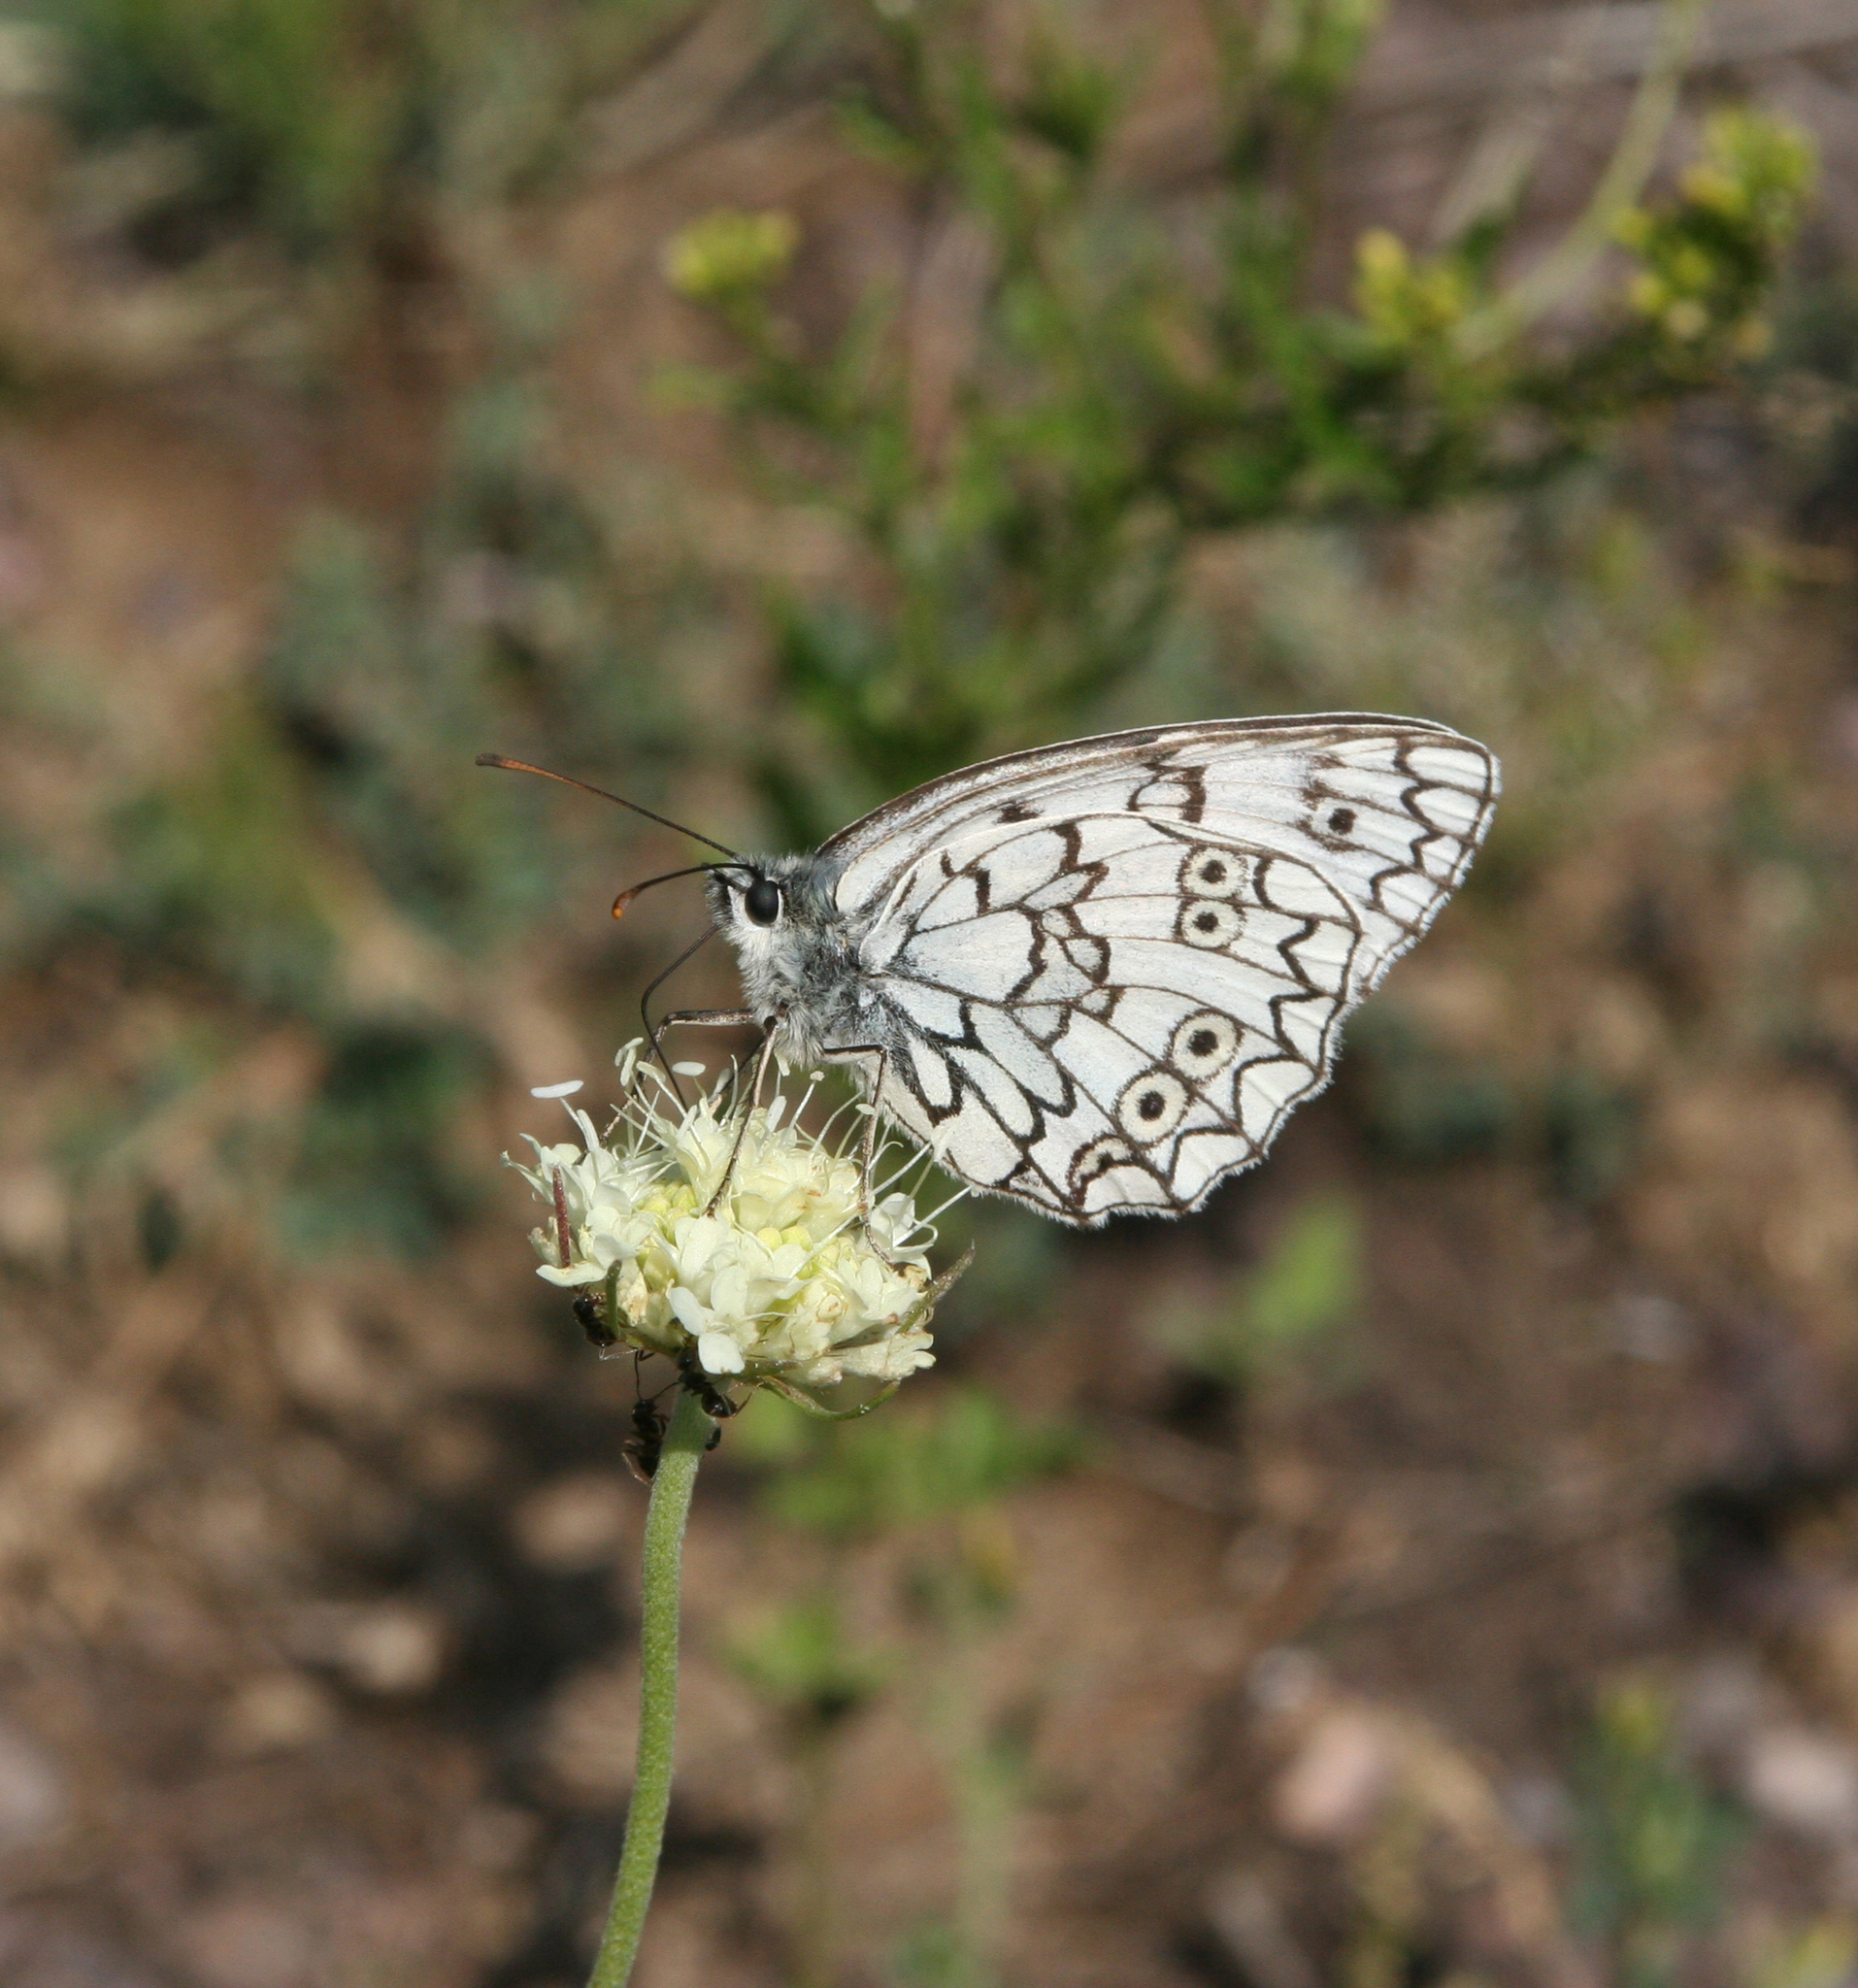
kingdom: Animalia
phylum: Arthropoda
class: Insecta
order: Lepidoptera
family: Nymphalidae
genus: Melanargia
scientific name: Melanargia japygia
